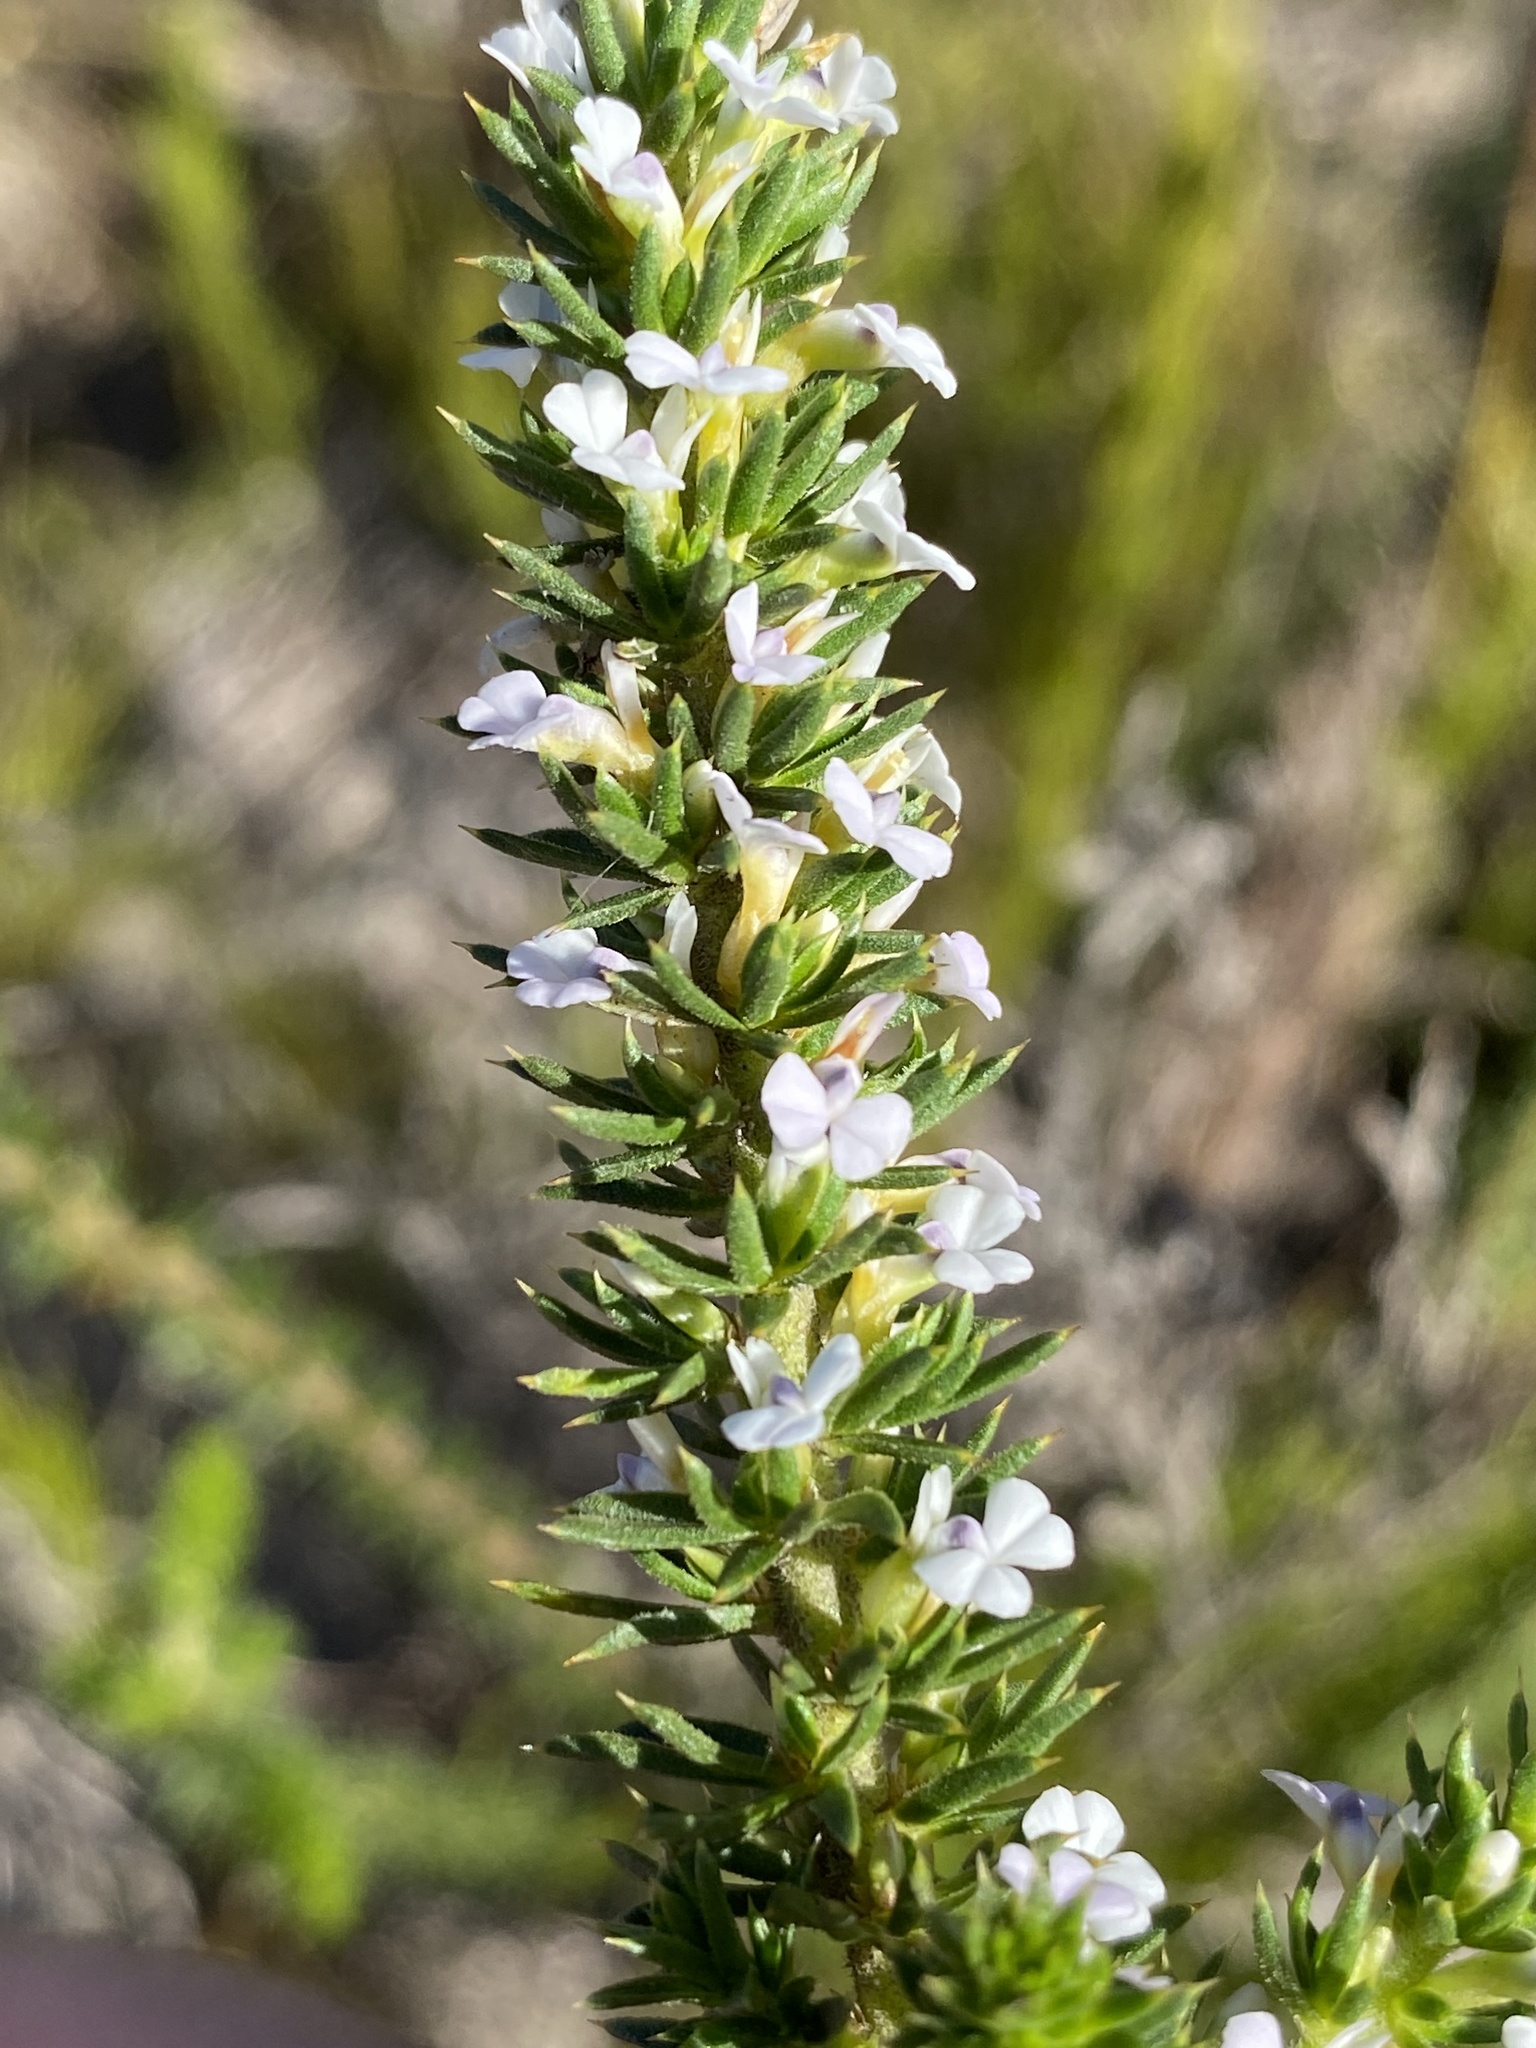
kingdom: Plantae
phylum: Tracheophyta
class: Magnoliopsida
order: Fabales
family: Polygalaceae
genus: Muraltia
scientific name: Muraltia satureioides
